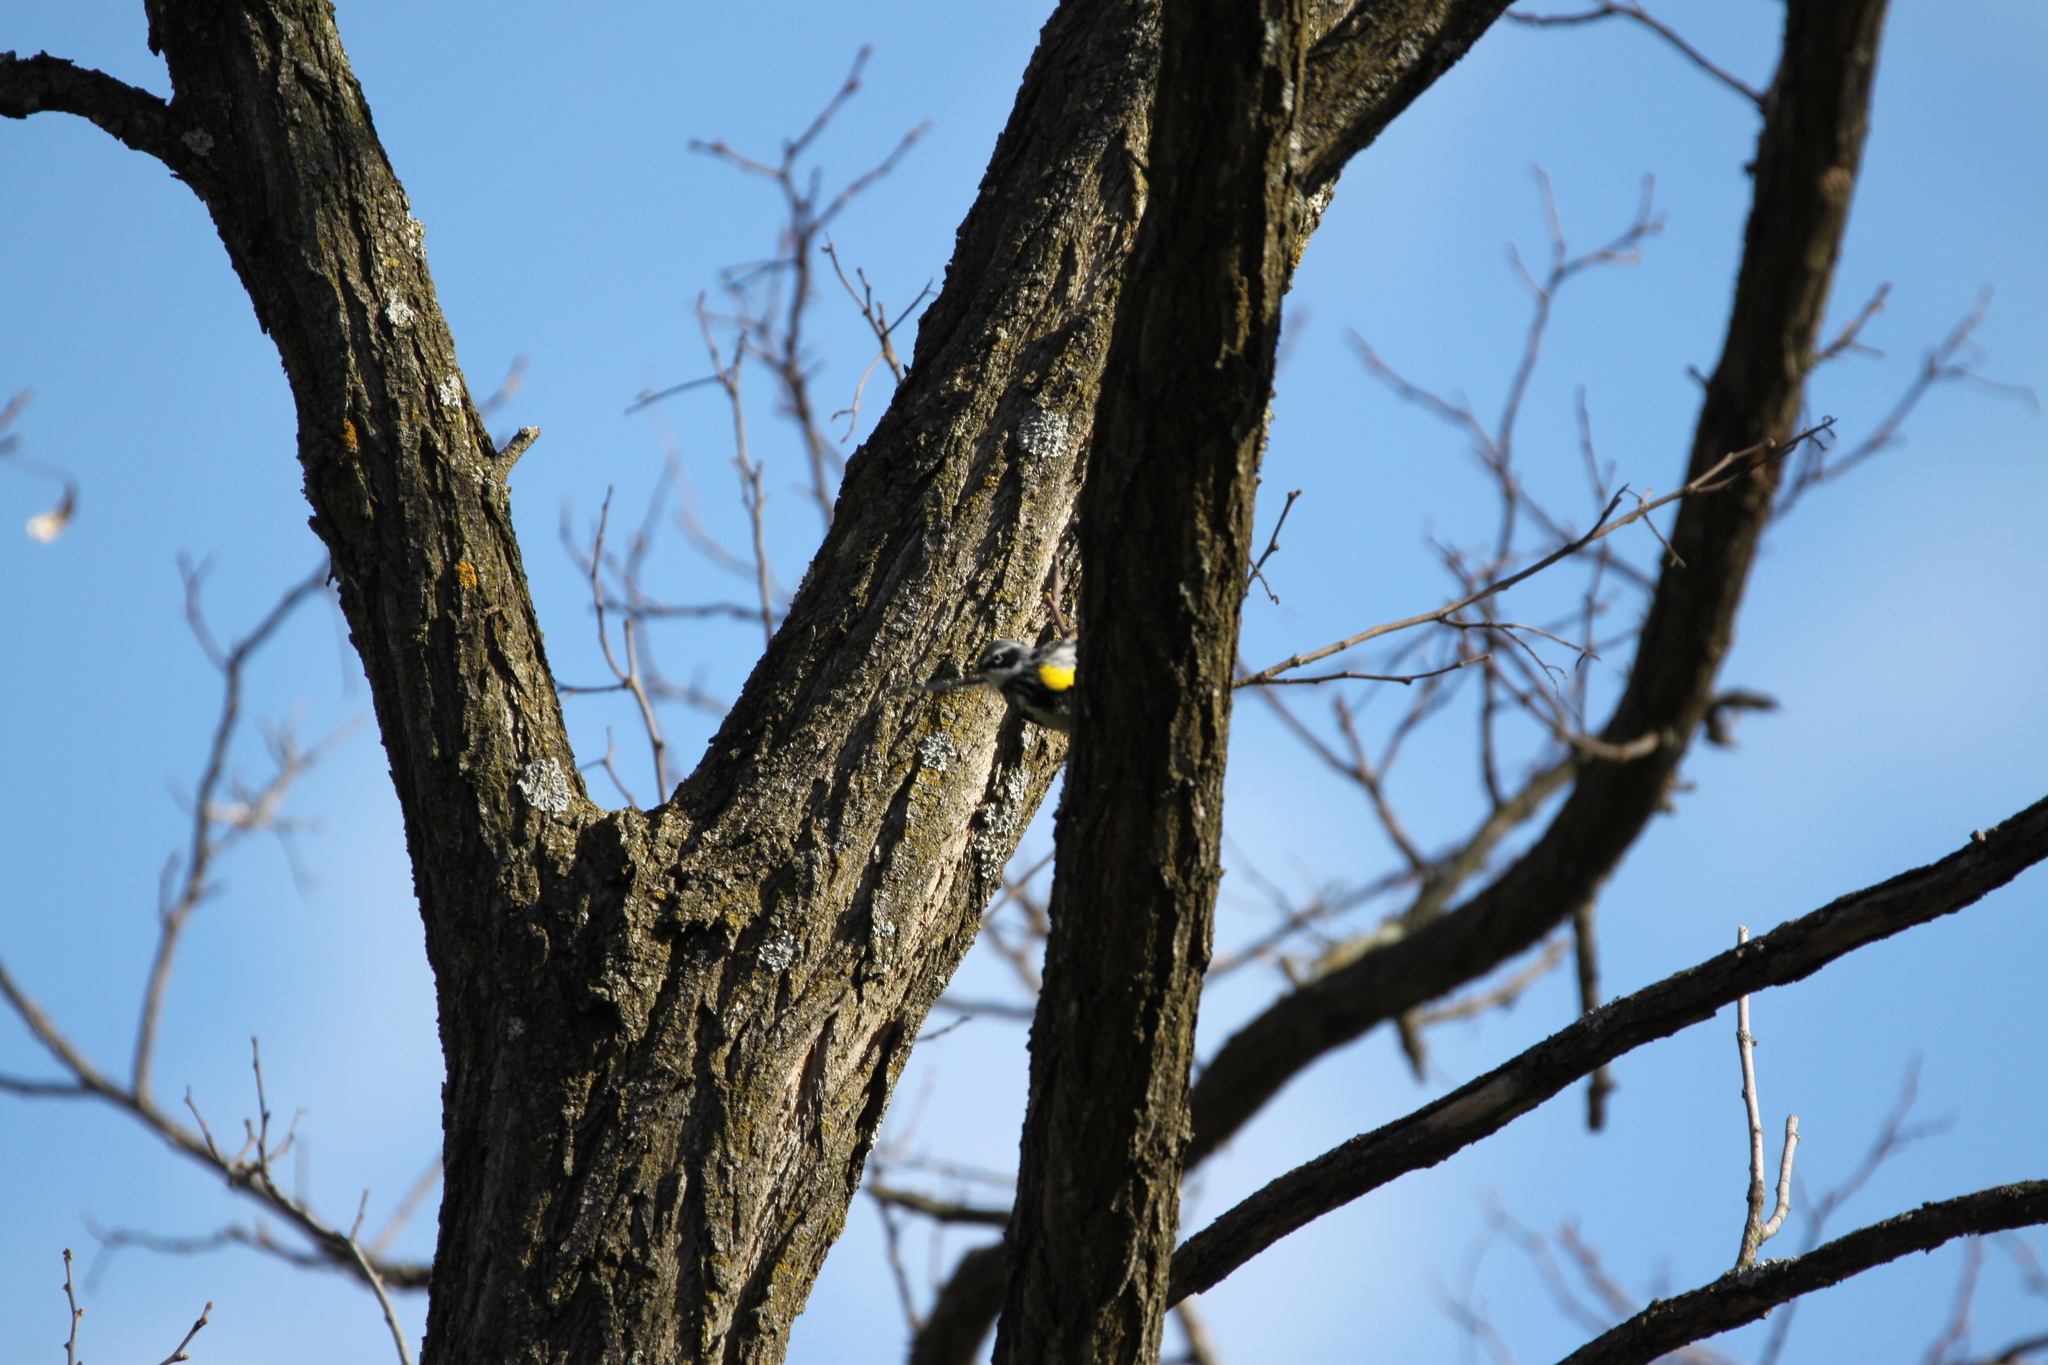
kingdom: Animalia
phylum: Chordata
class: Aves
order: Passeriformes
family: Parulidae
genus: Setophaga
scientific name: Setophaga coronata
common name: Myrtle warbler
